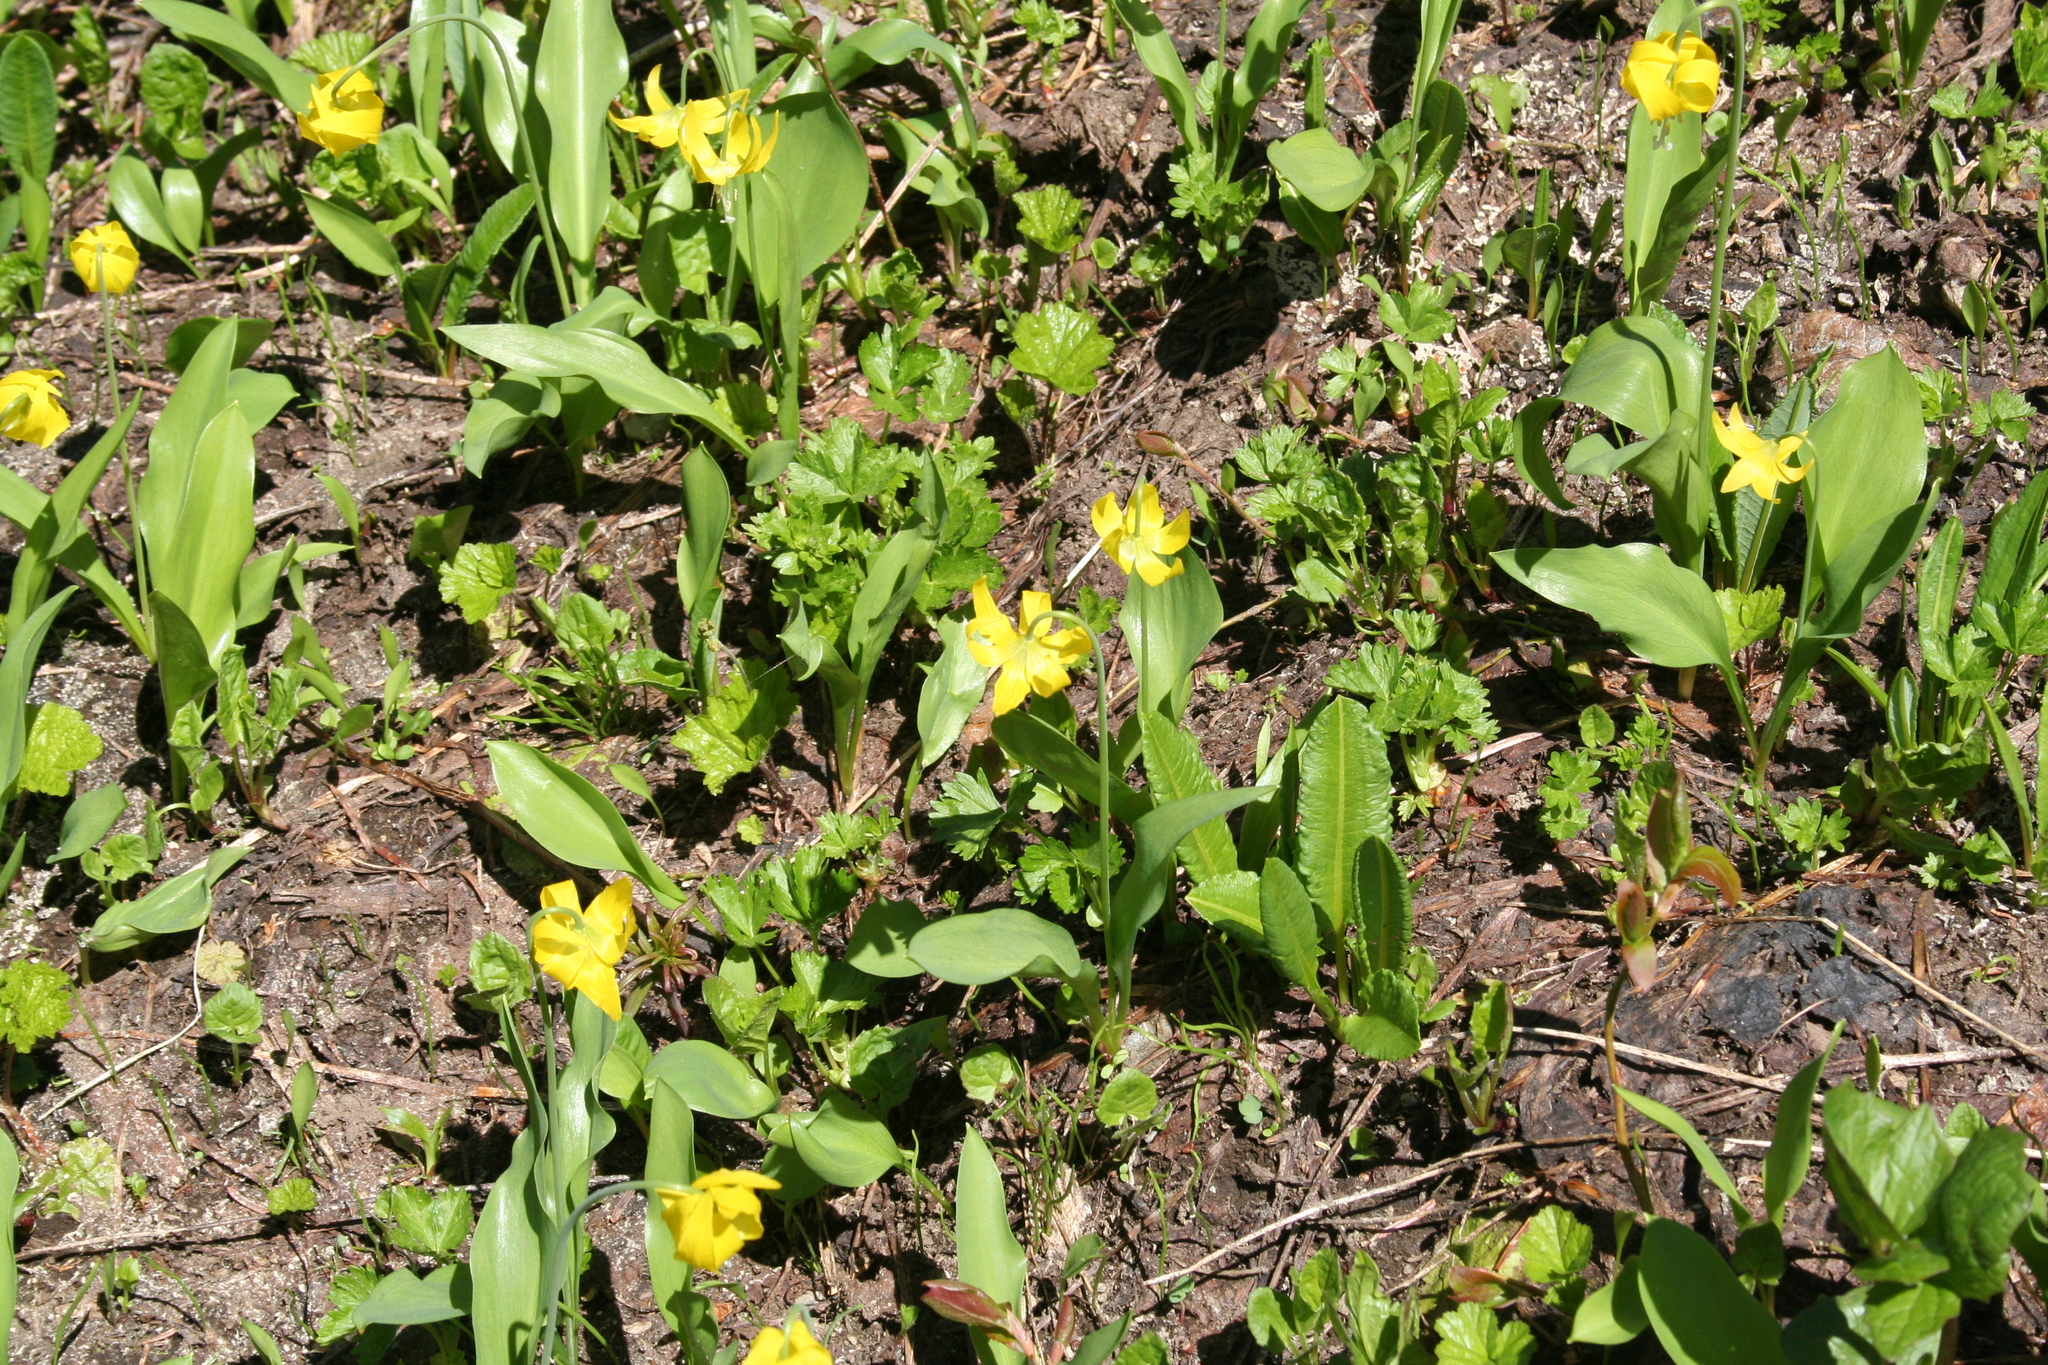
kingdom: Plantae
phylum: Tracheophyta
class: Liliopsida
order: Liliales
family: Liliaceae
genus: Erythronium
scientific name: Erythronium grandiflorum
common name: Avalanche-lily
